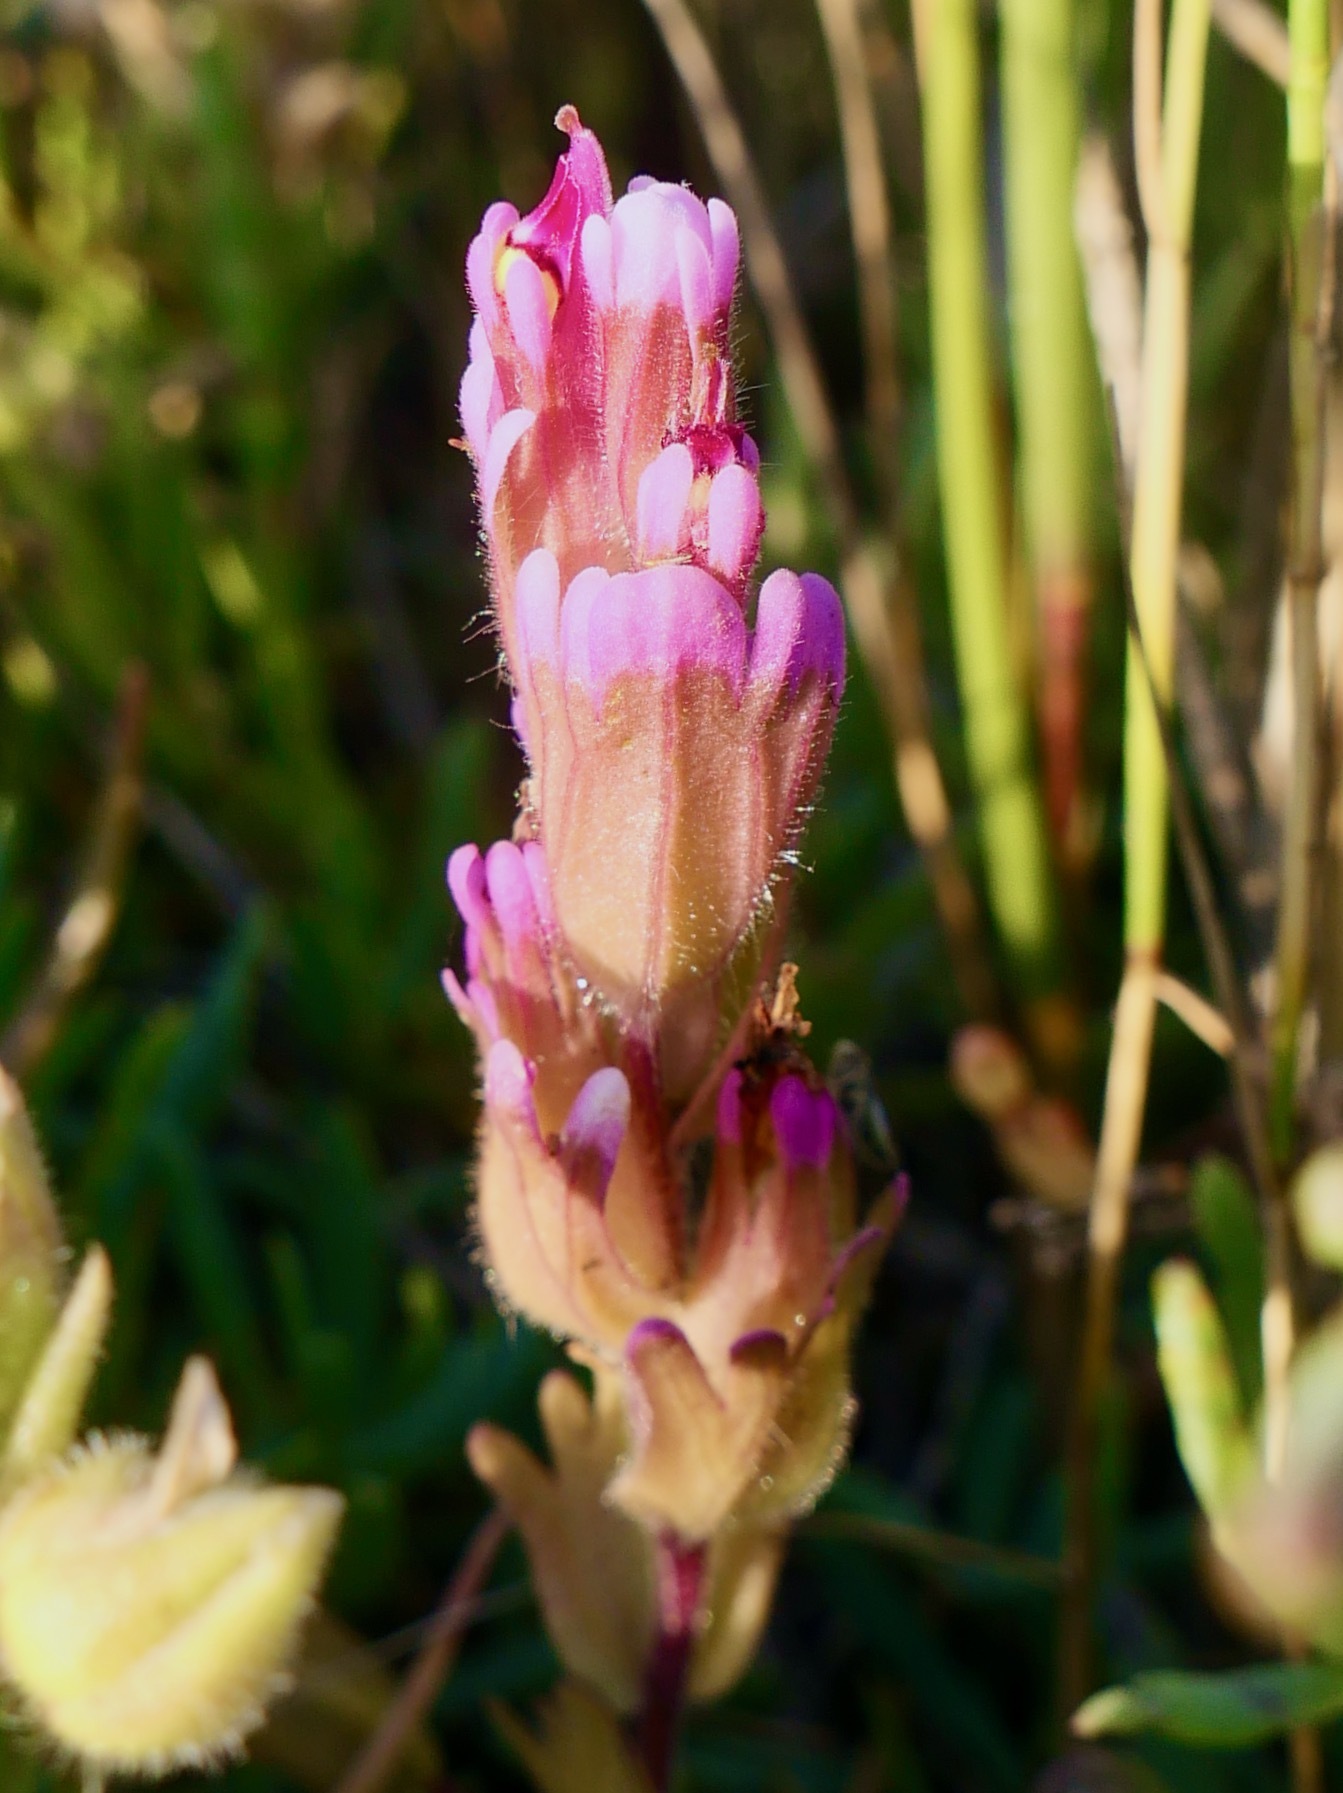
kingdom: Plantae
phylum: Tracheophyta
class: Magnoliopsida
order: Lamiales
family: Orobanchaceae
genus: Castilleja
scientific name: Castilleja ambigua
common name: Johnny-nip
